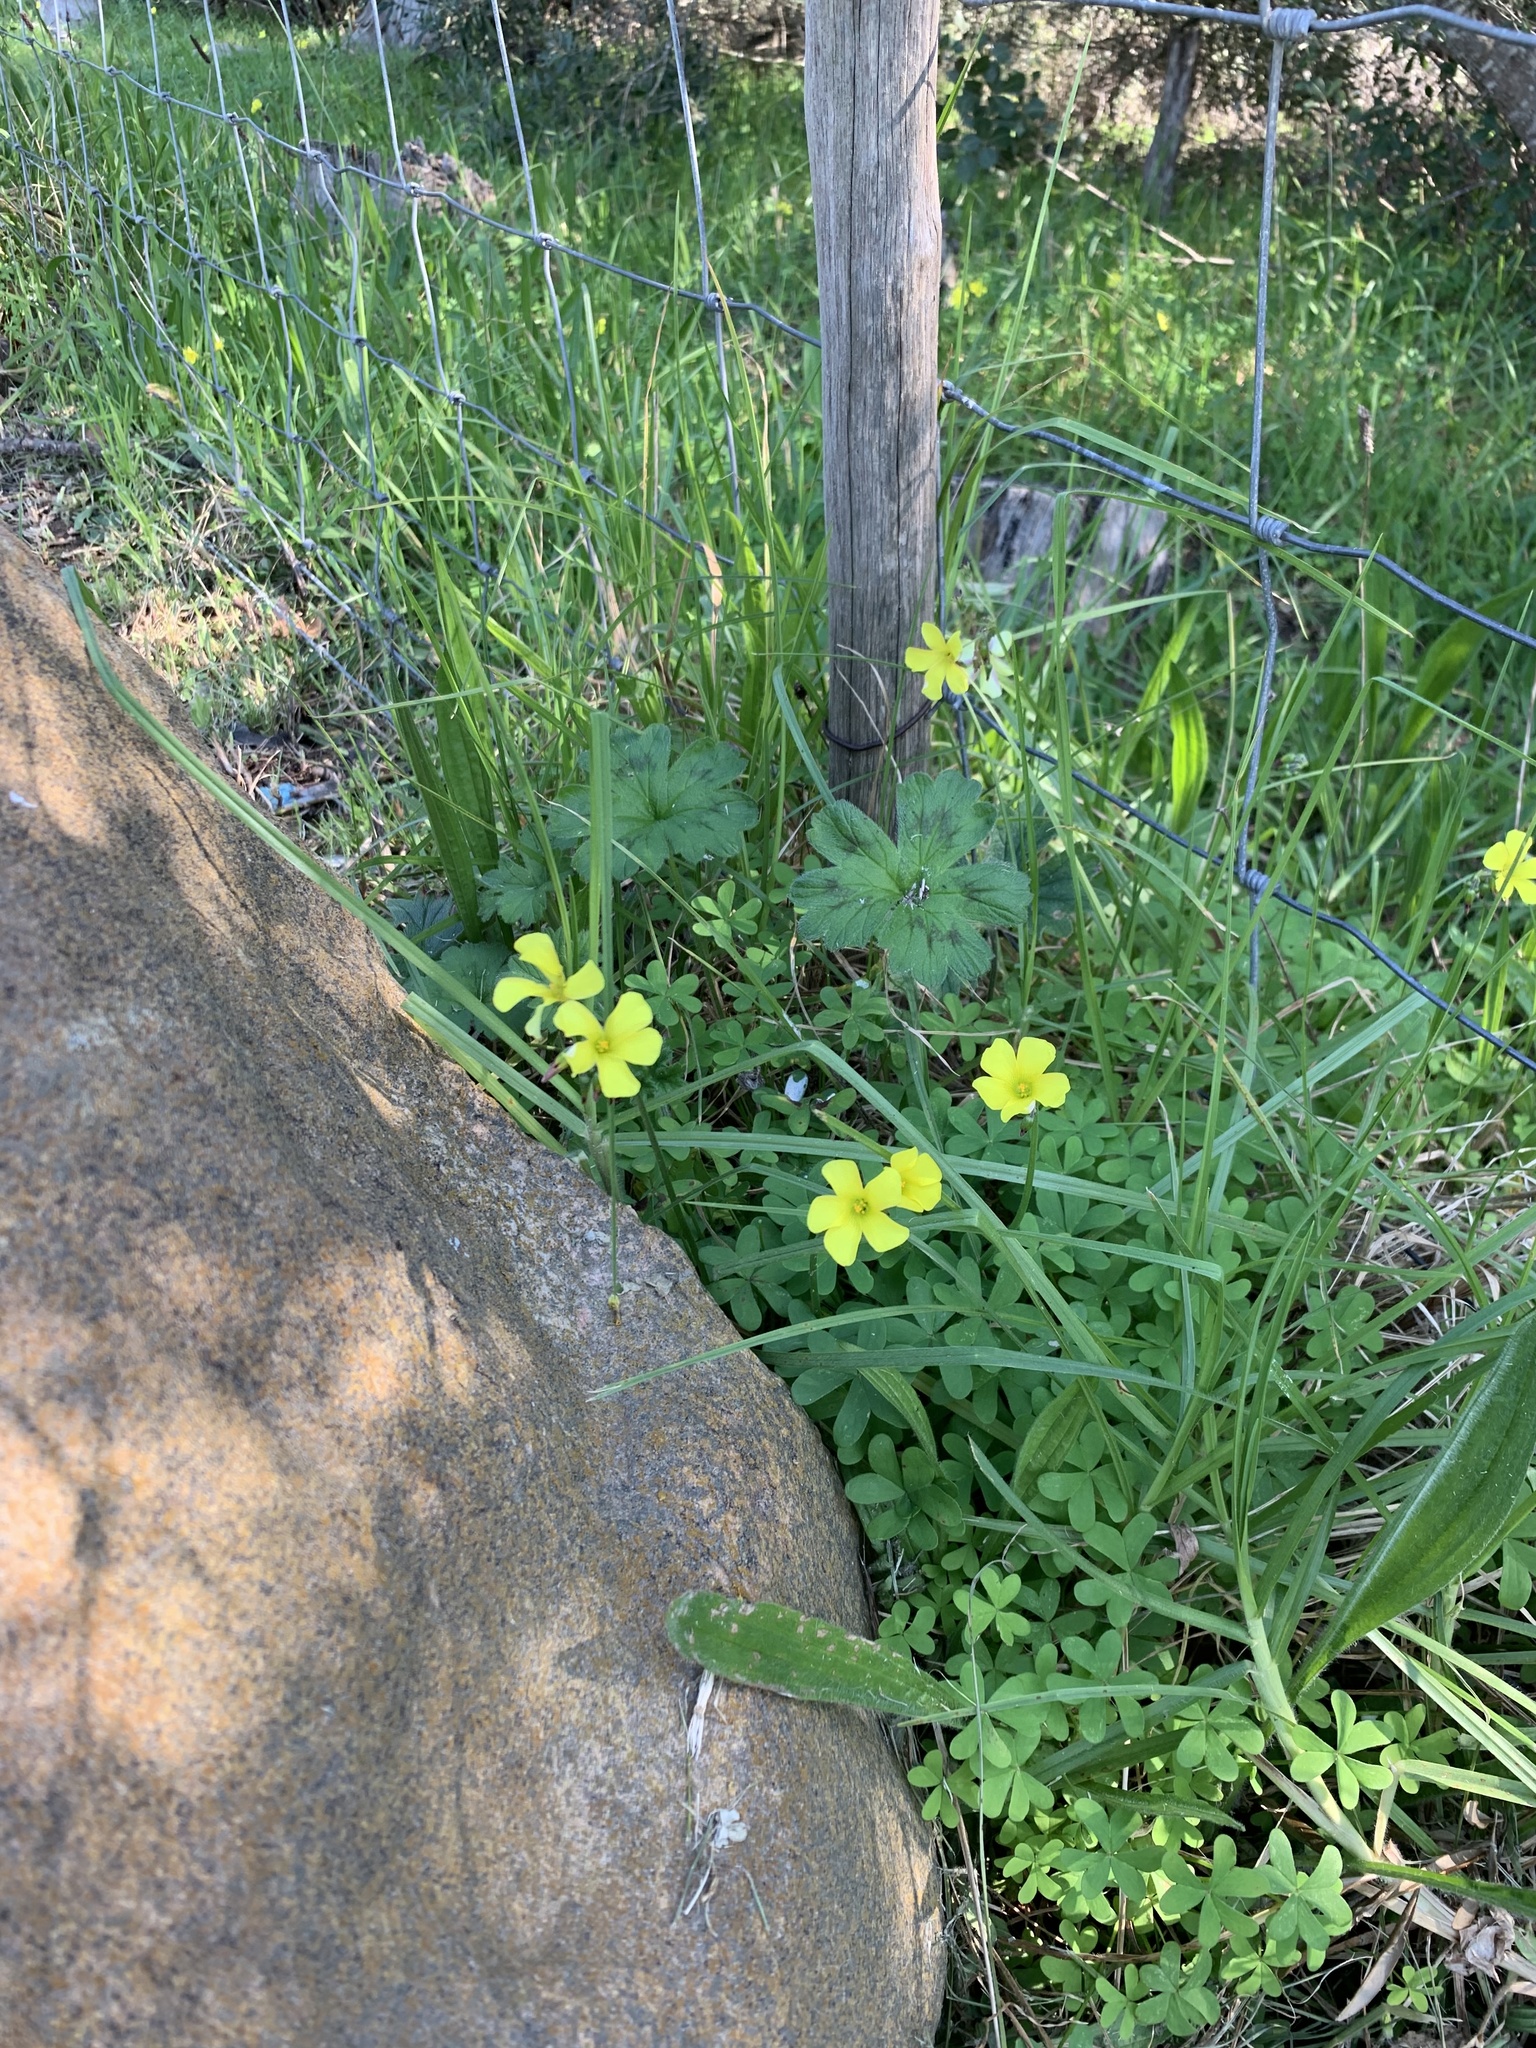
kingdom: Plantae
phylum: Tracheophyta
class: Magnoliopsida
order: Oxalidales
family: Oxalidaceae
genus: Oxalis
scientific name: Oxalis pes-caprae
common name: Bermuda-buttercup
